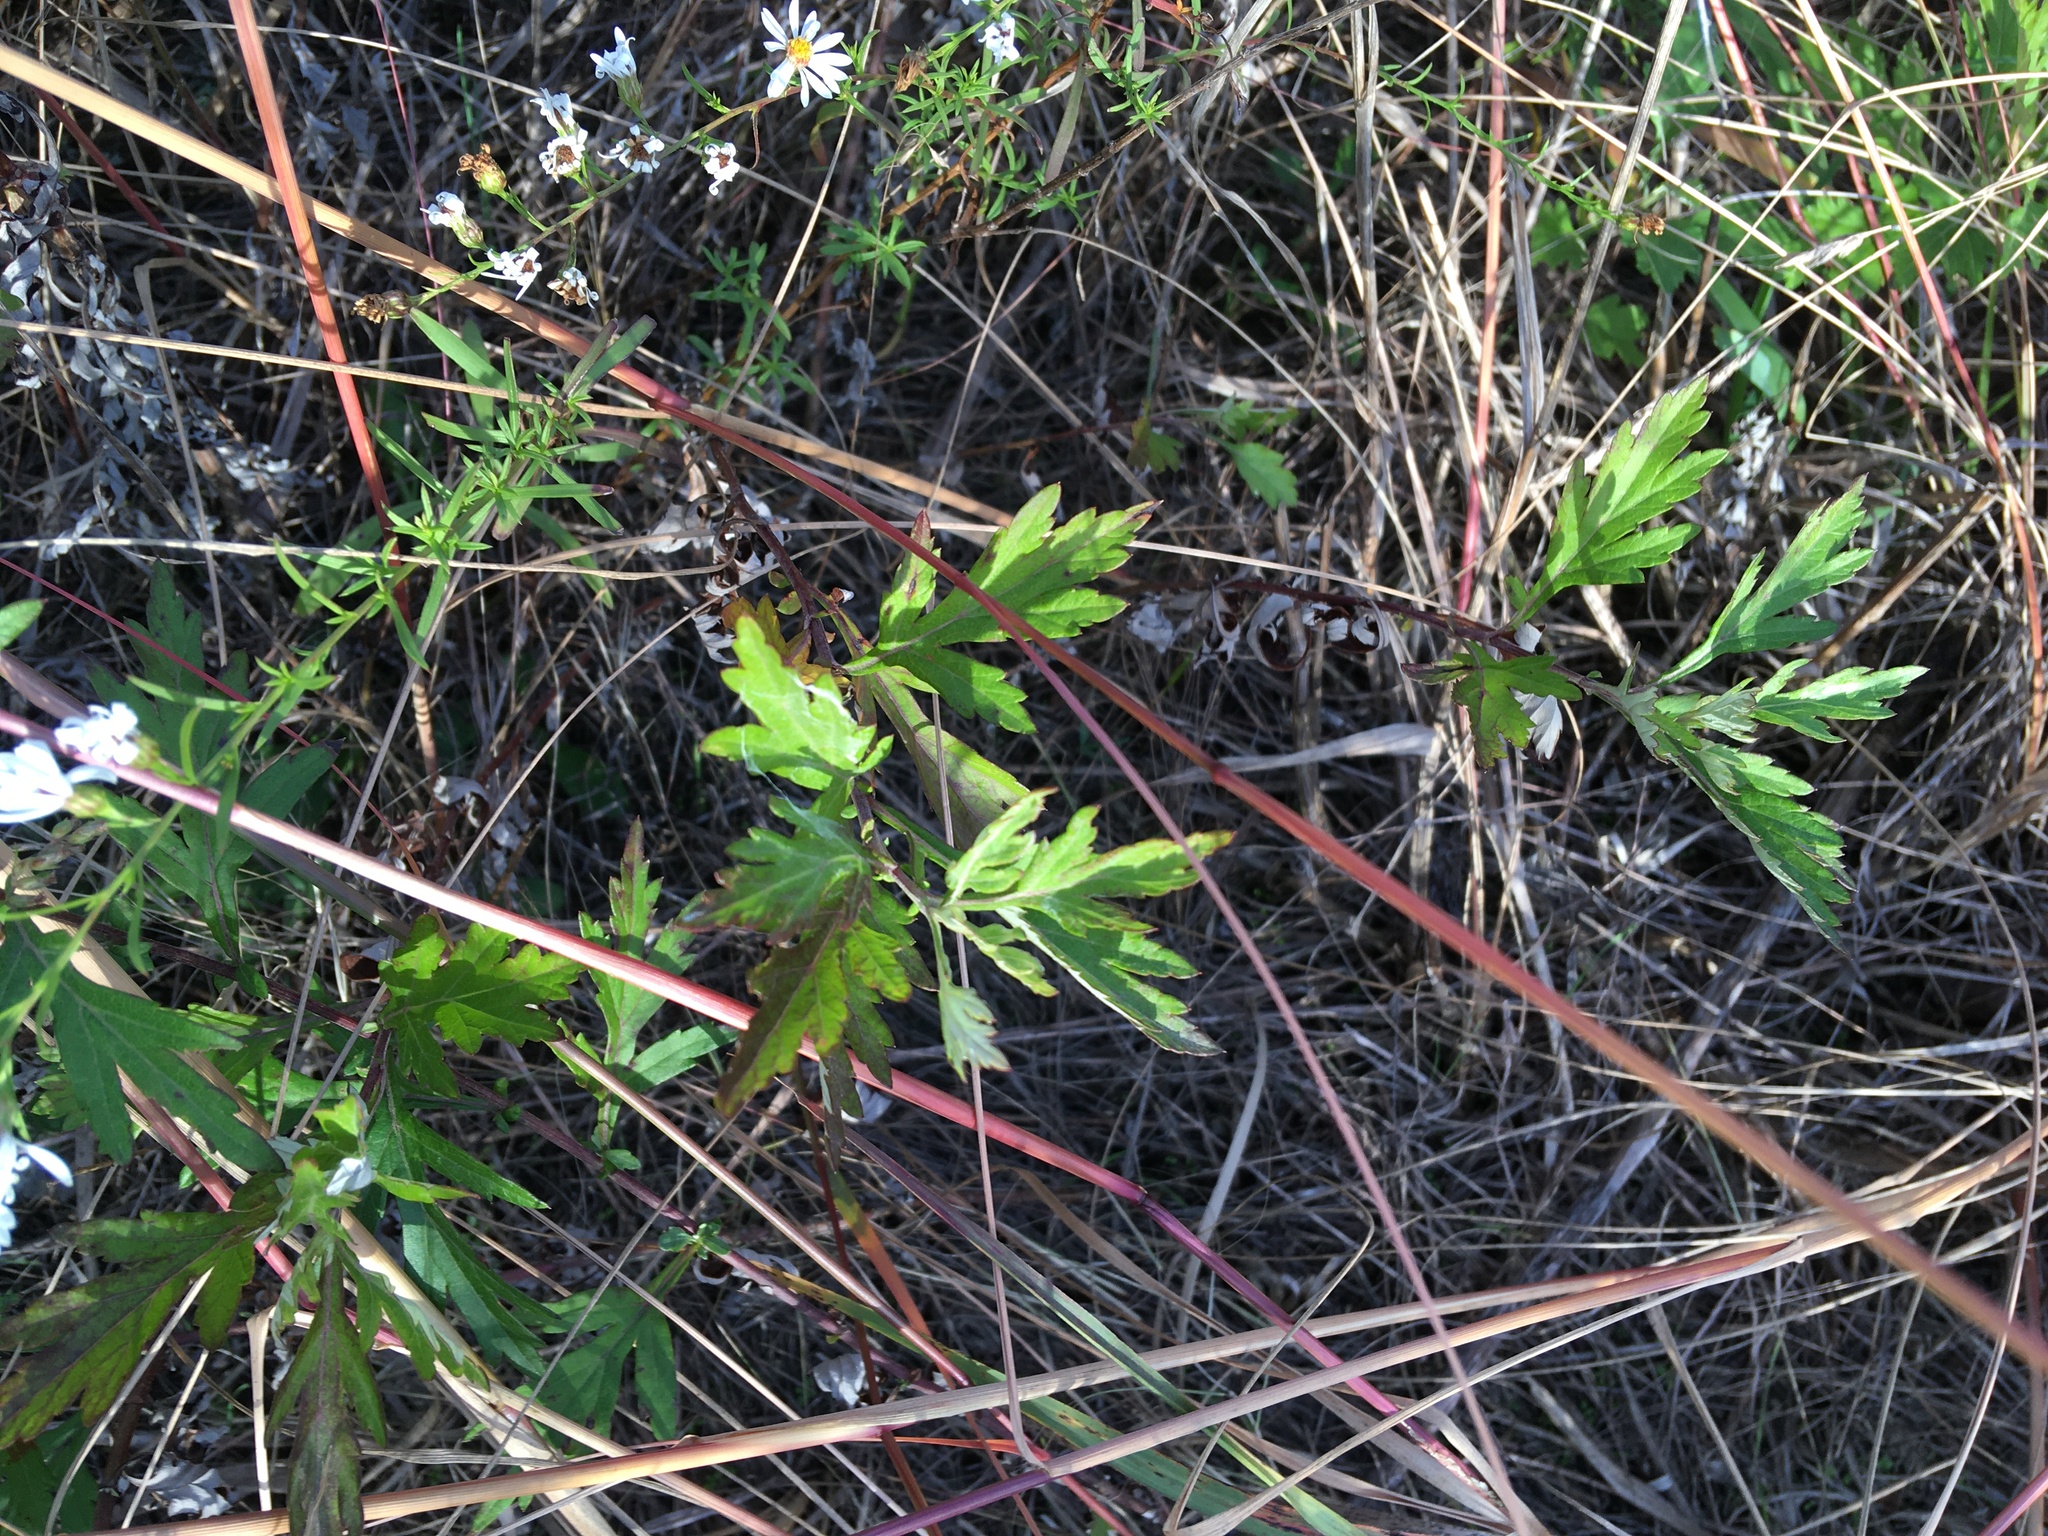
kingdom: Plantae
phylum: Tracheophyta
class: Magnoliopsida
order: Asterales
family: Asteraceae
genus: Artemisia
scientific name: Artemisia vulgaris
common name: Mugwort
